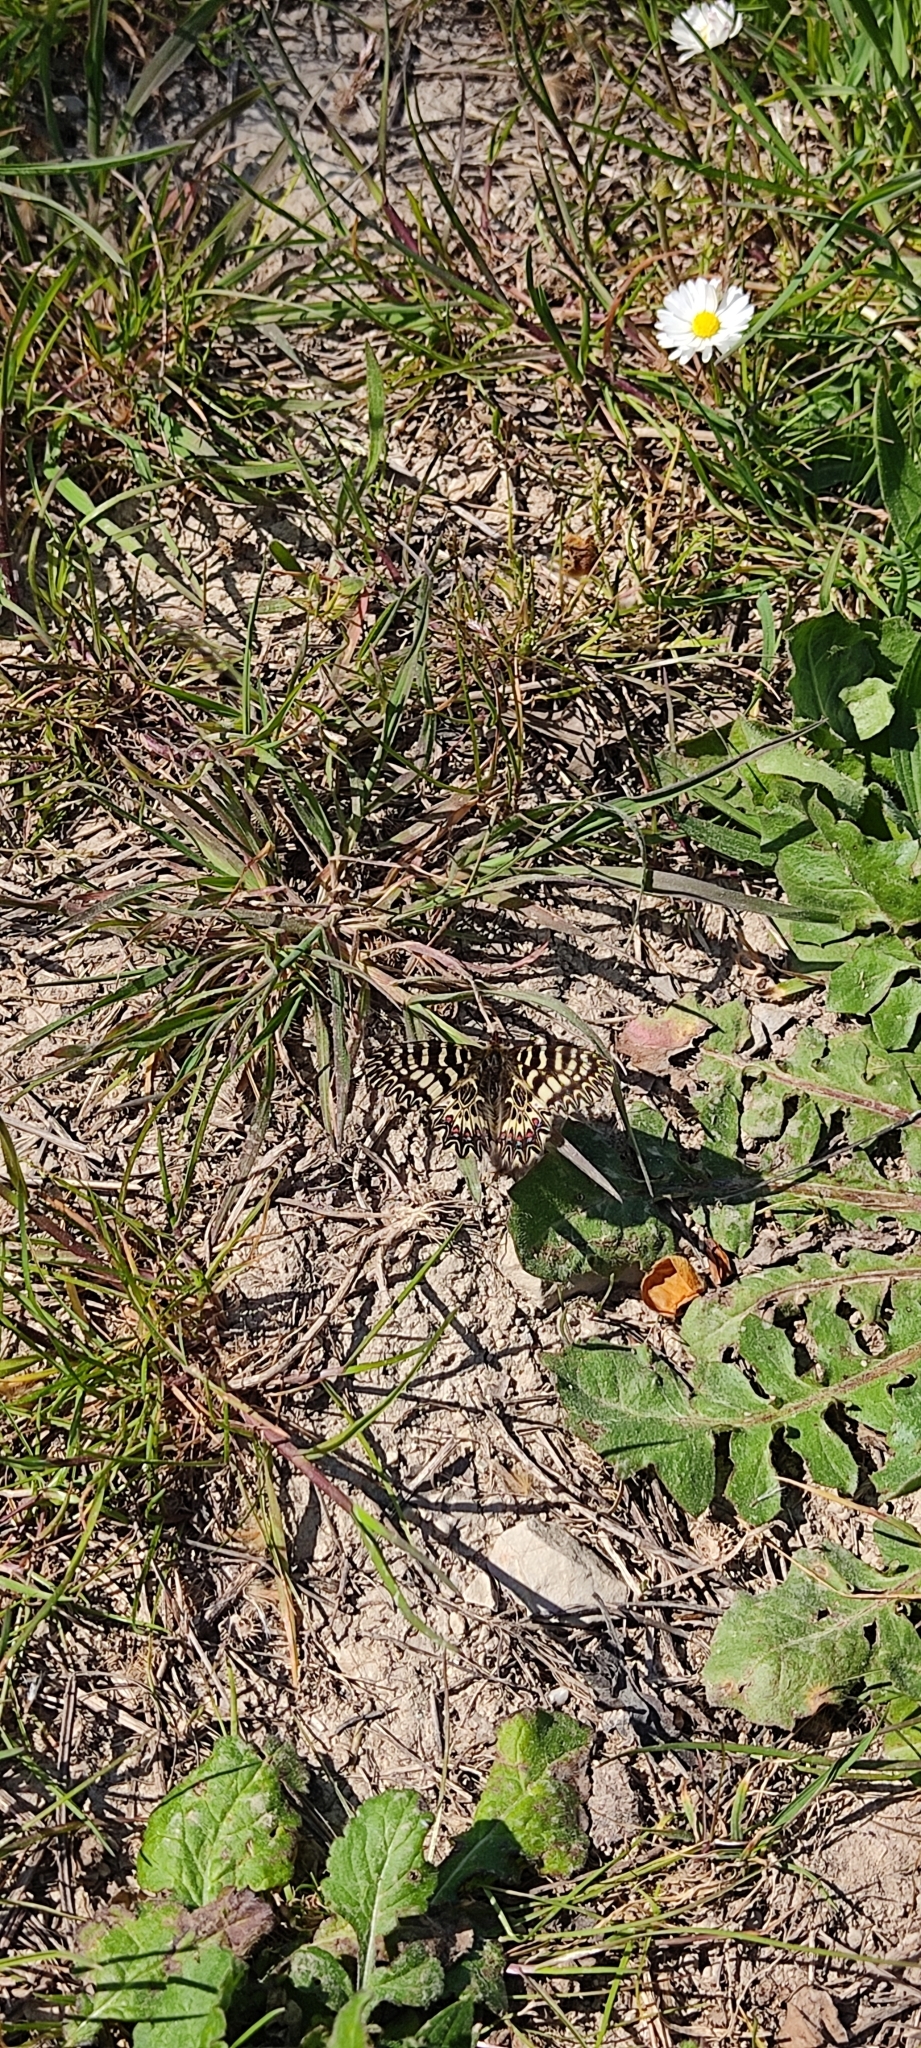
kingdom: Animalia
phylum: Arthropoda
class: Insecta
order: Lepidoptera
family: Papilionidae
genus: Zerynthia
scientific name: Zerynthia polyxena
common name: Southern festoon
